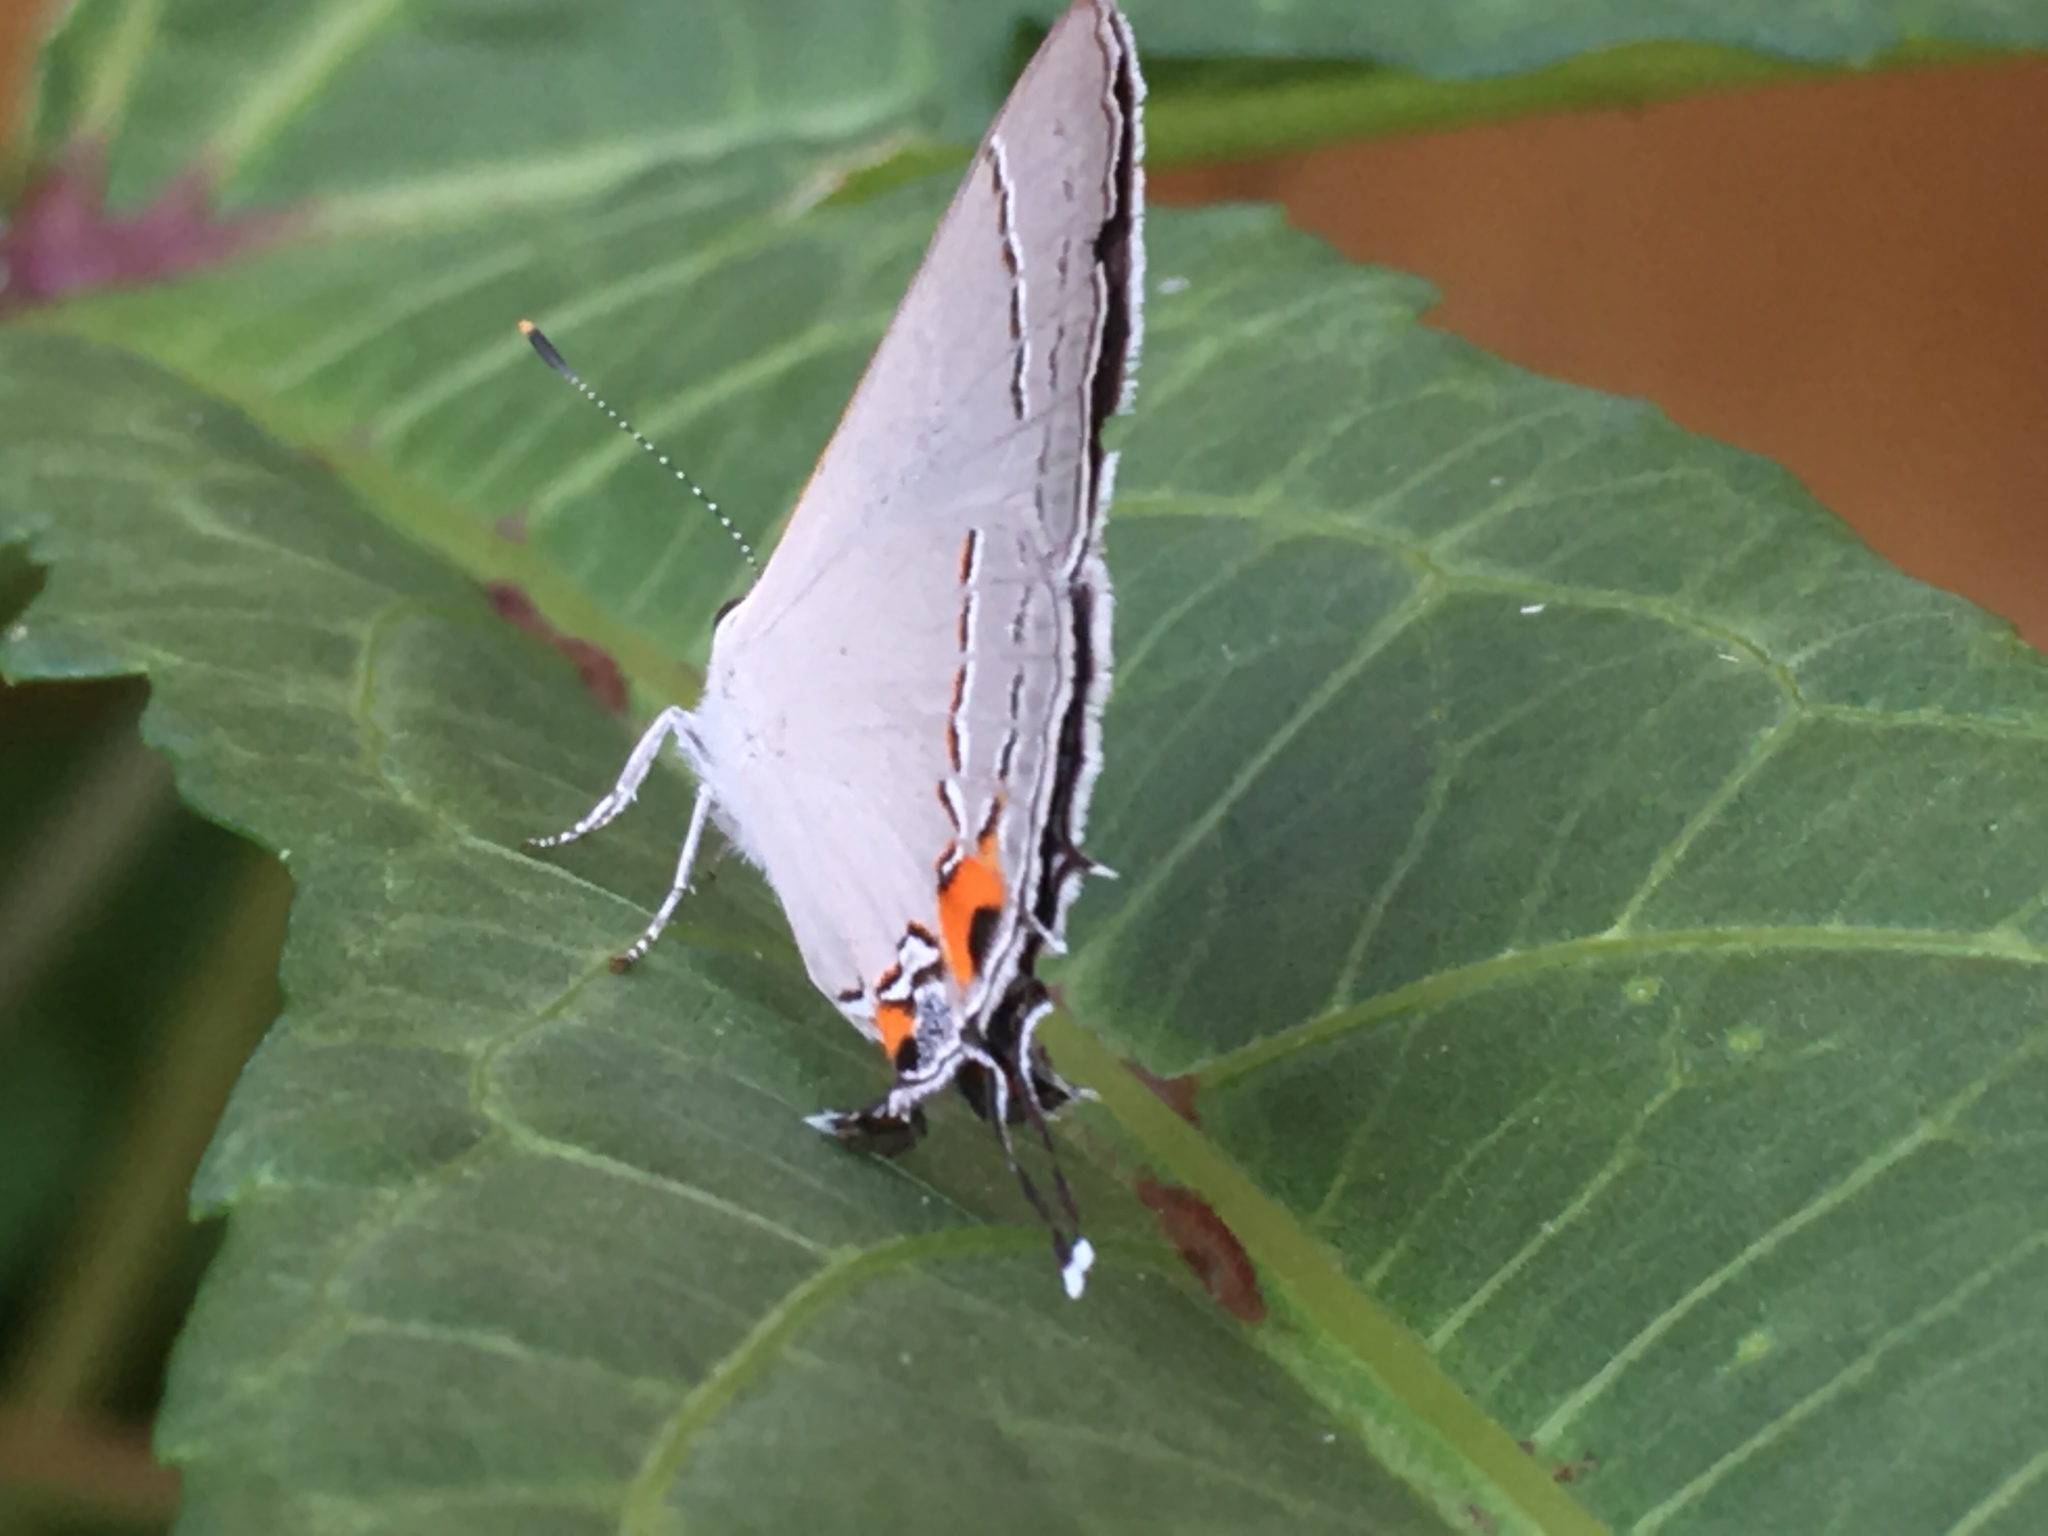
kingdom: Animalia
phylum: Arthropoda
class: Insecta
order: Lepidoptera
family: Lycaenidae
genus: Strymon
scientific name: Strymon melinus
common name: Gray hairstreak
